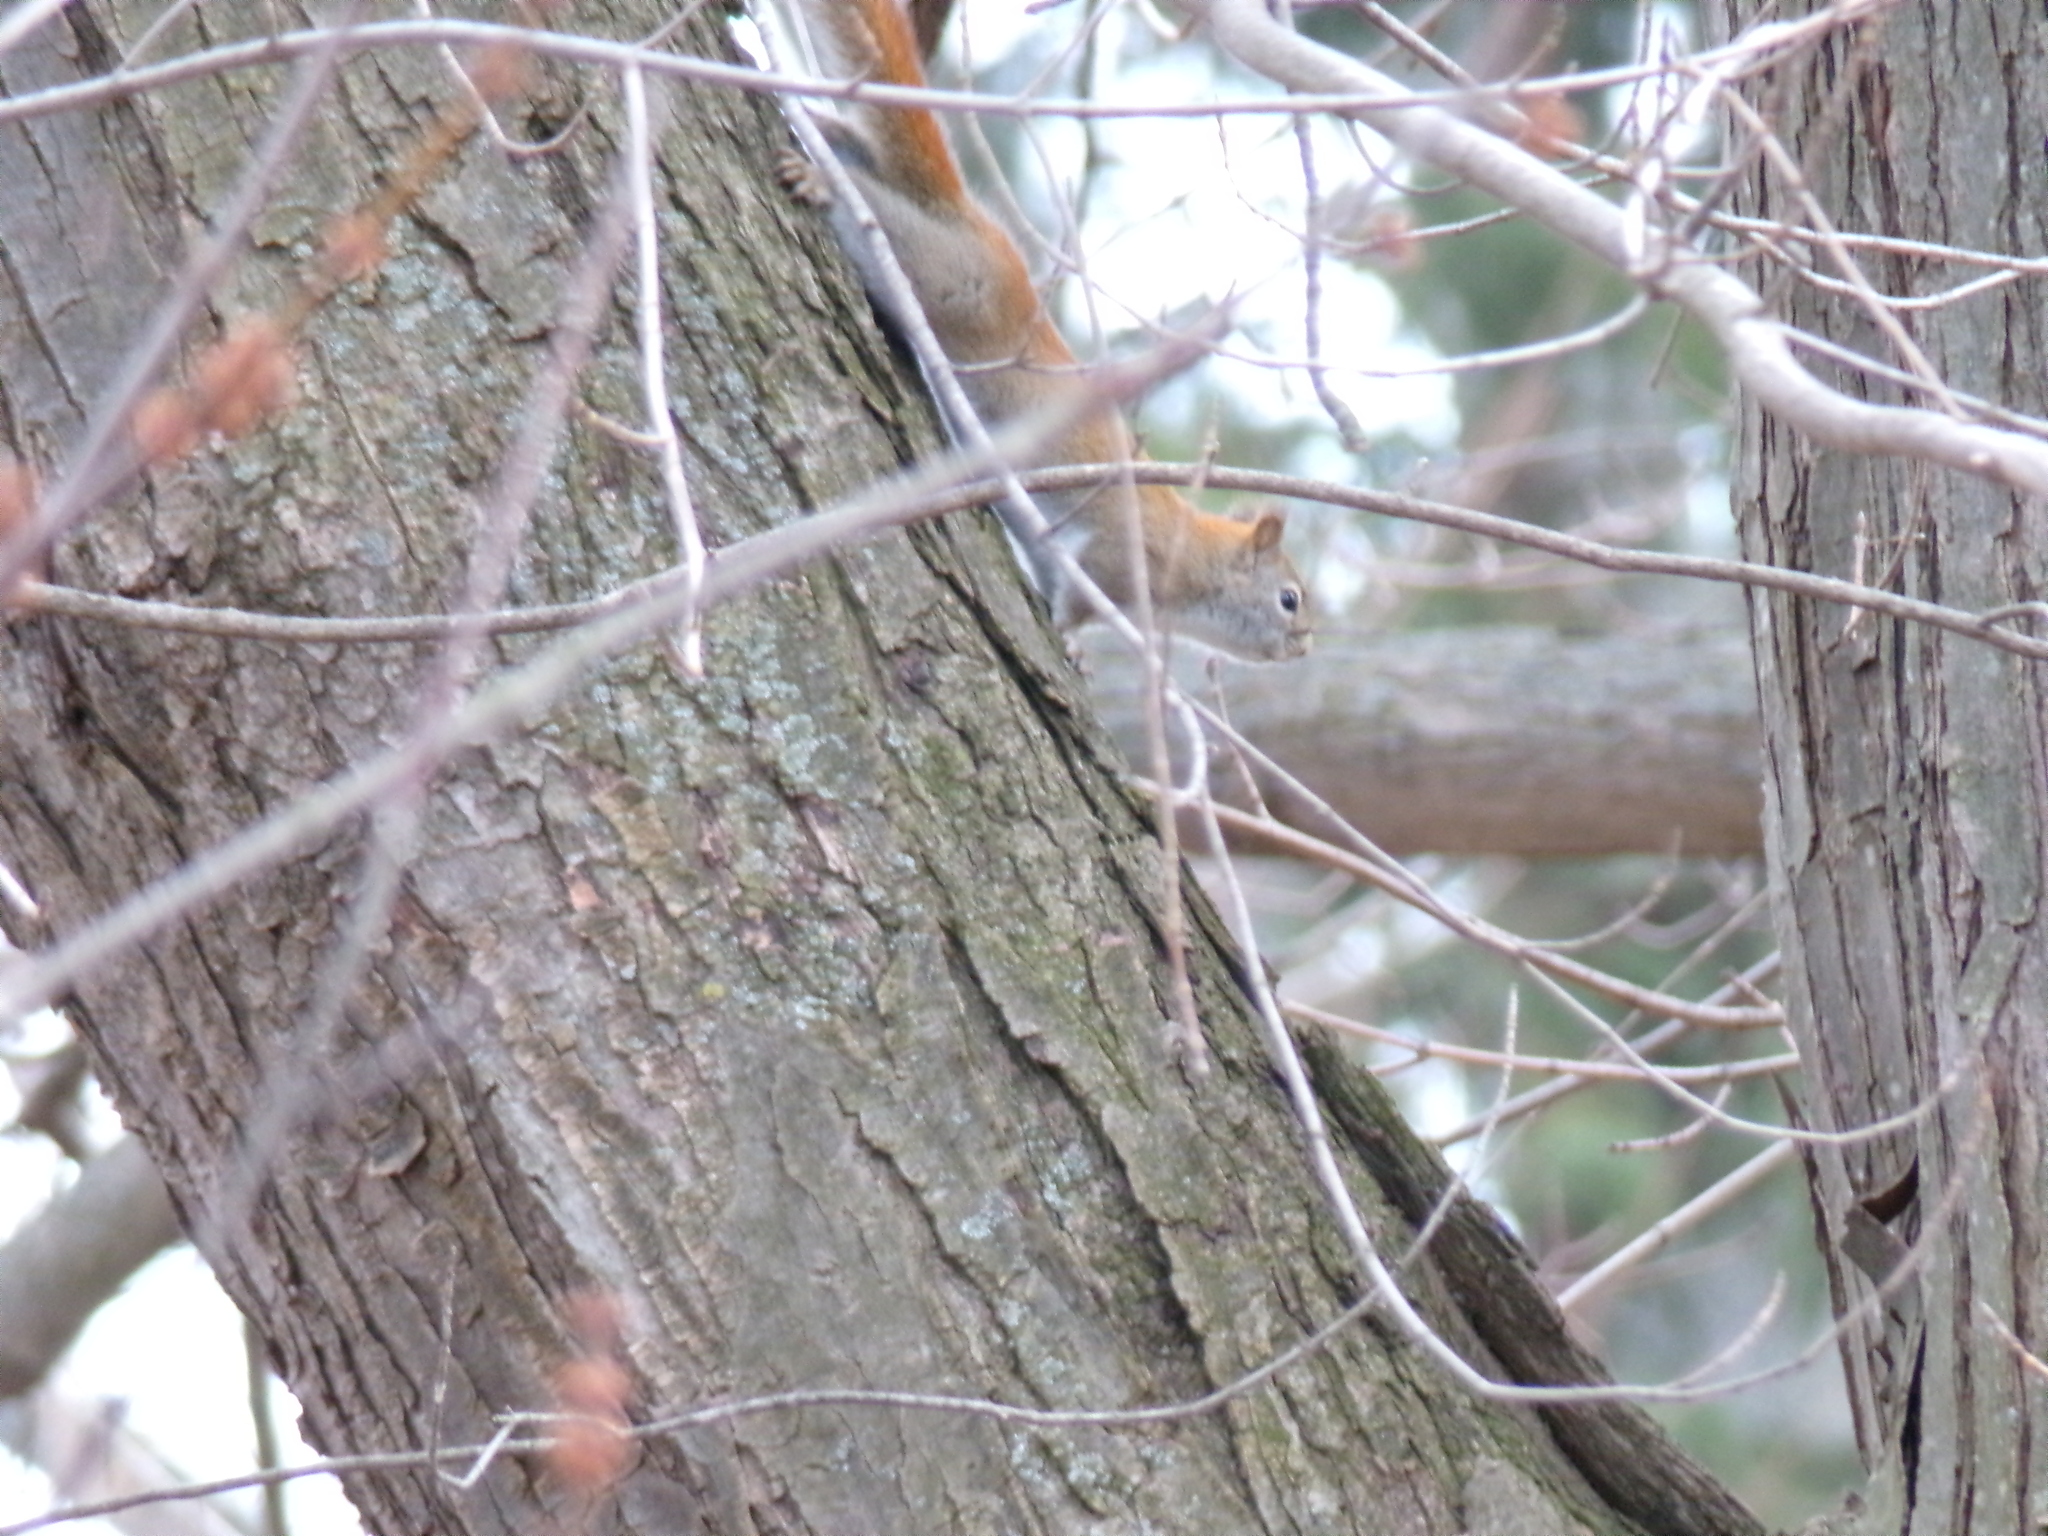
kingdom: Animalia
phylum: Chordata
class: Mammalia
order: Rodentia
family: Sciuridae
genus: Tamiasciurus
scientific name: Tamiasciurus hudsonicus
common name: Red squirrel
